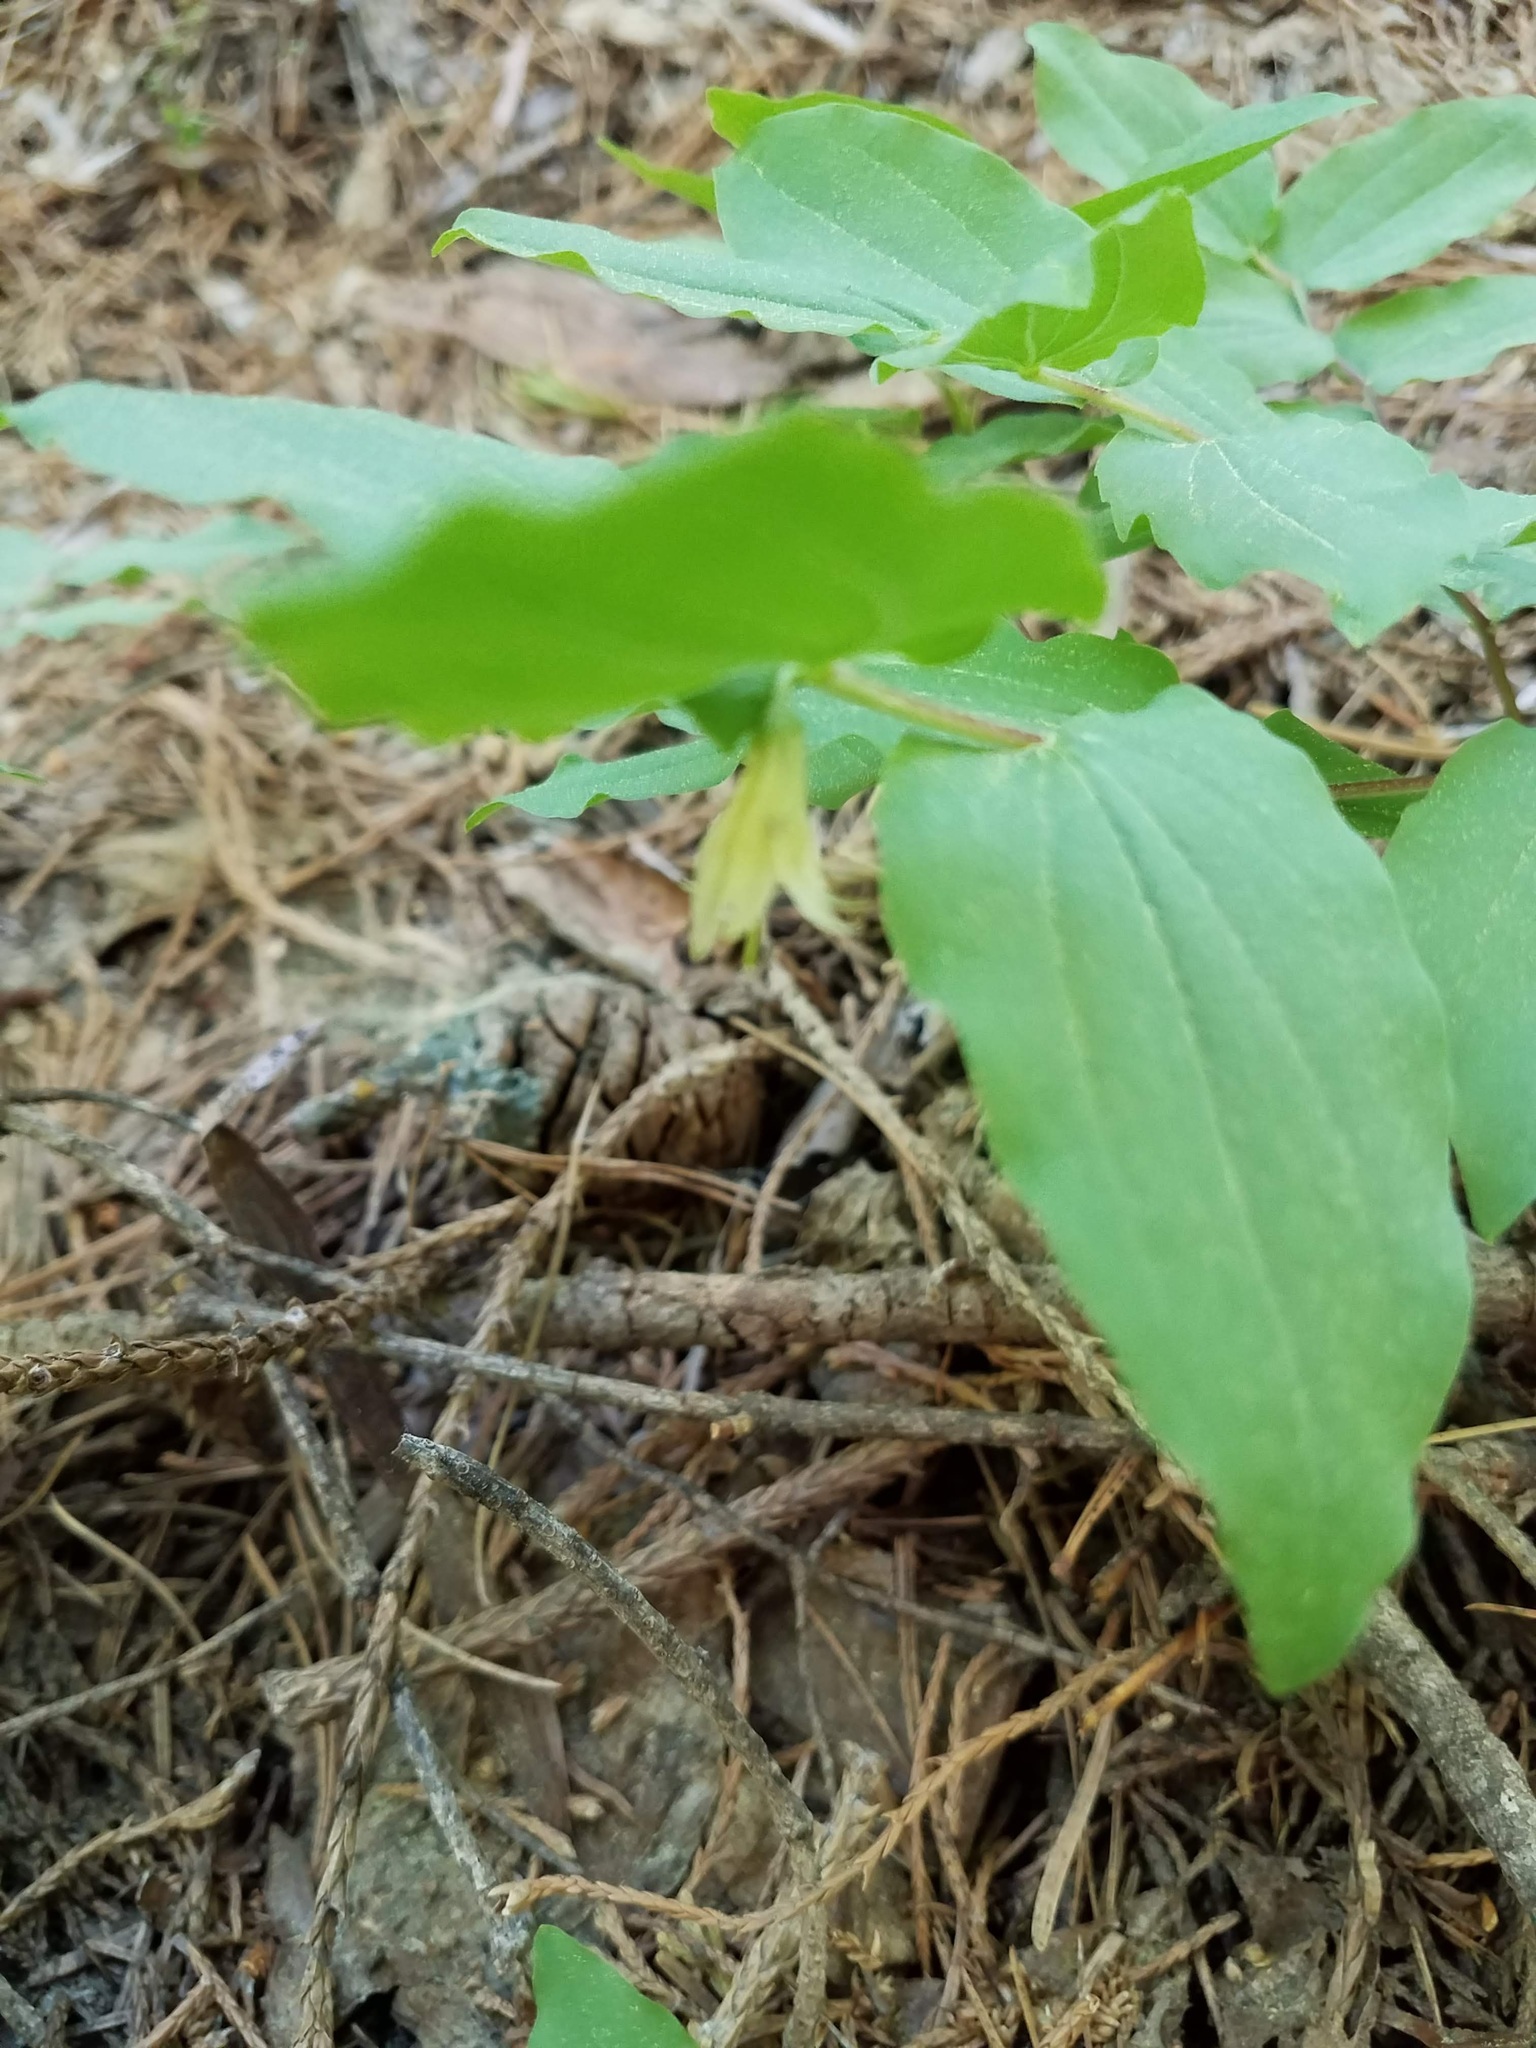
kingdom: Plantae
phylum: Tracheophyta
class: Liliopsida
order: Liliales
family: Liliaceae
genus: Prosartes
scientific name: Prosartes hookeri
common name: Fairy-bells
